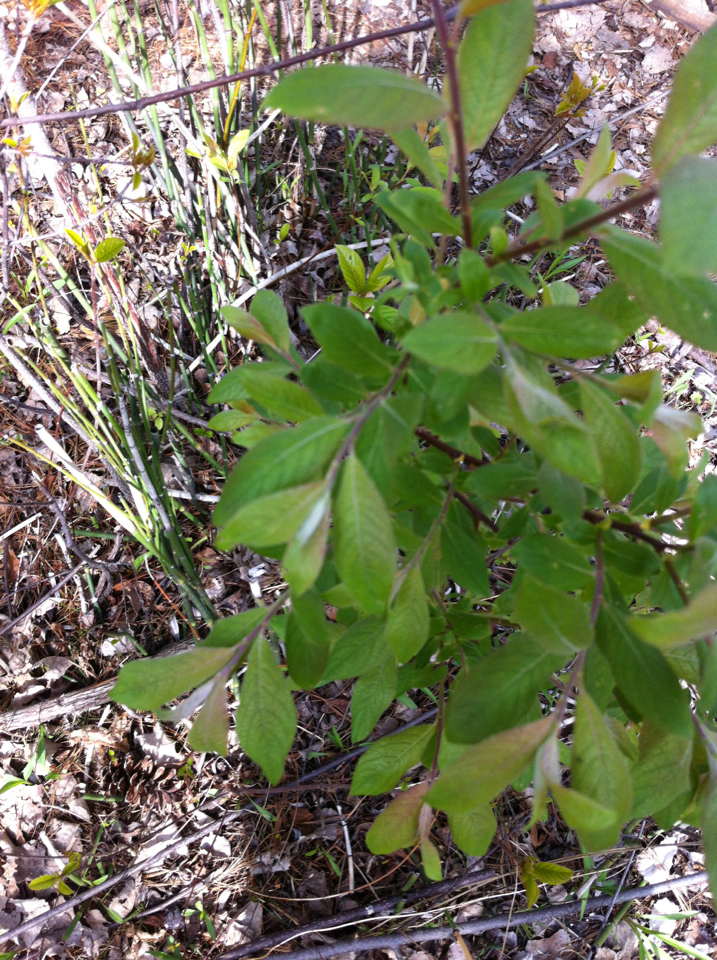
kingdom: Plantae
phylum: Tracheophyta
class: Magnoliopsida
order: Malpighiales
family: Salicaceae
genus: Salix
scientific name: Salix bebbiana
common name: Bebb's willow
